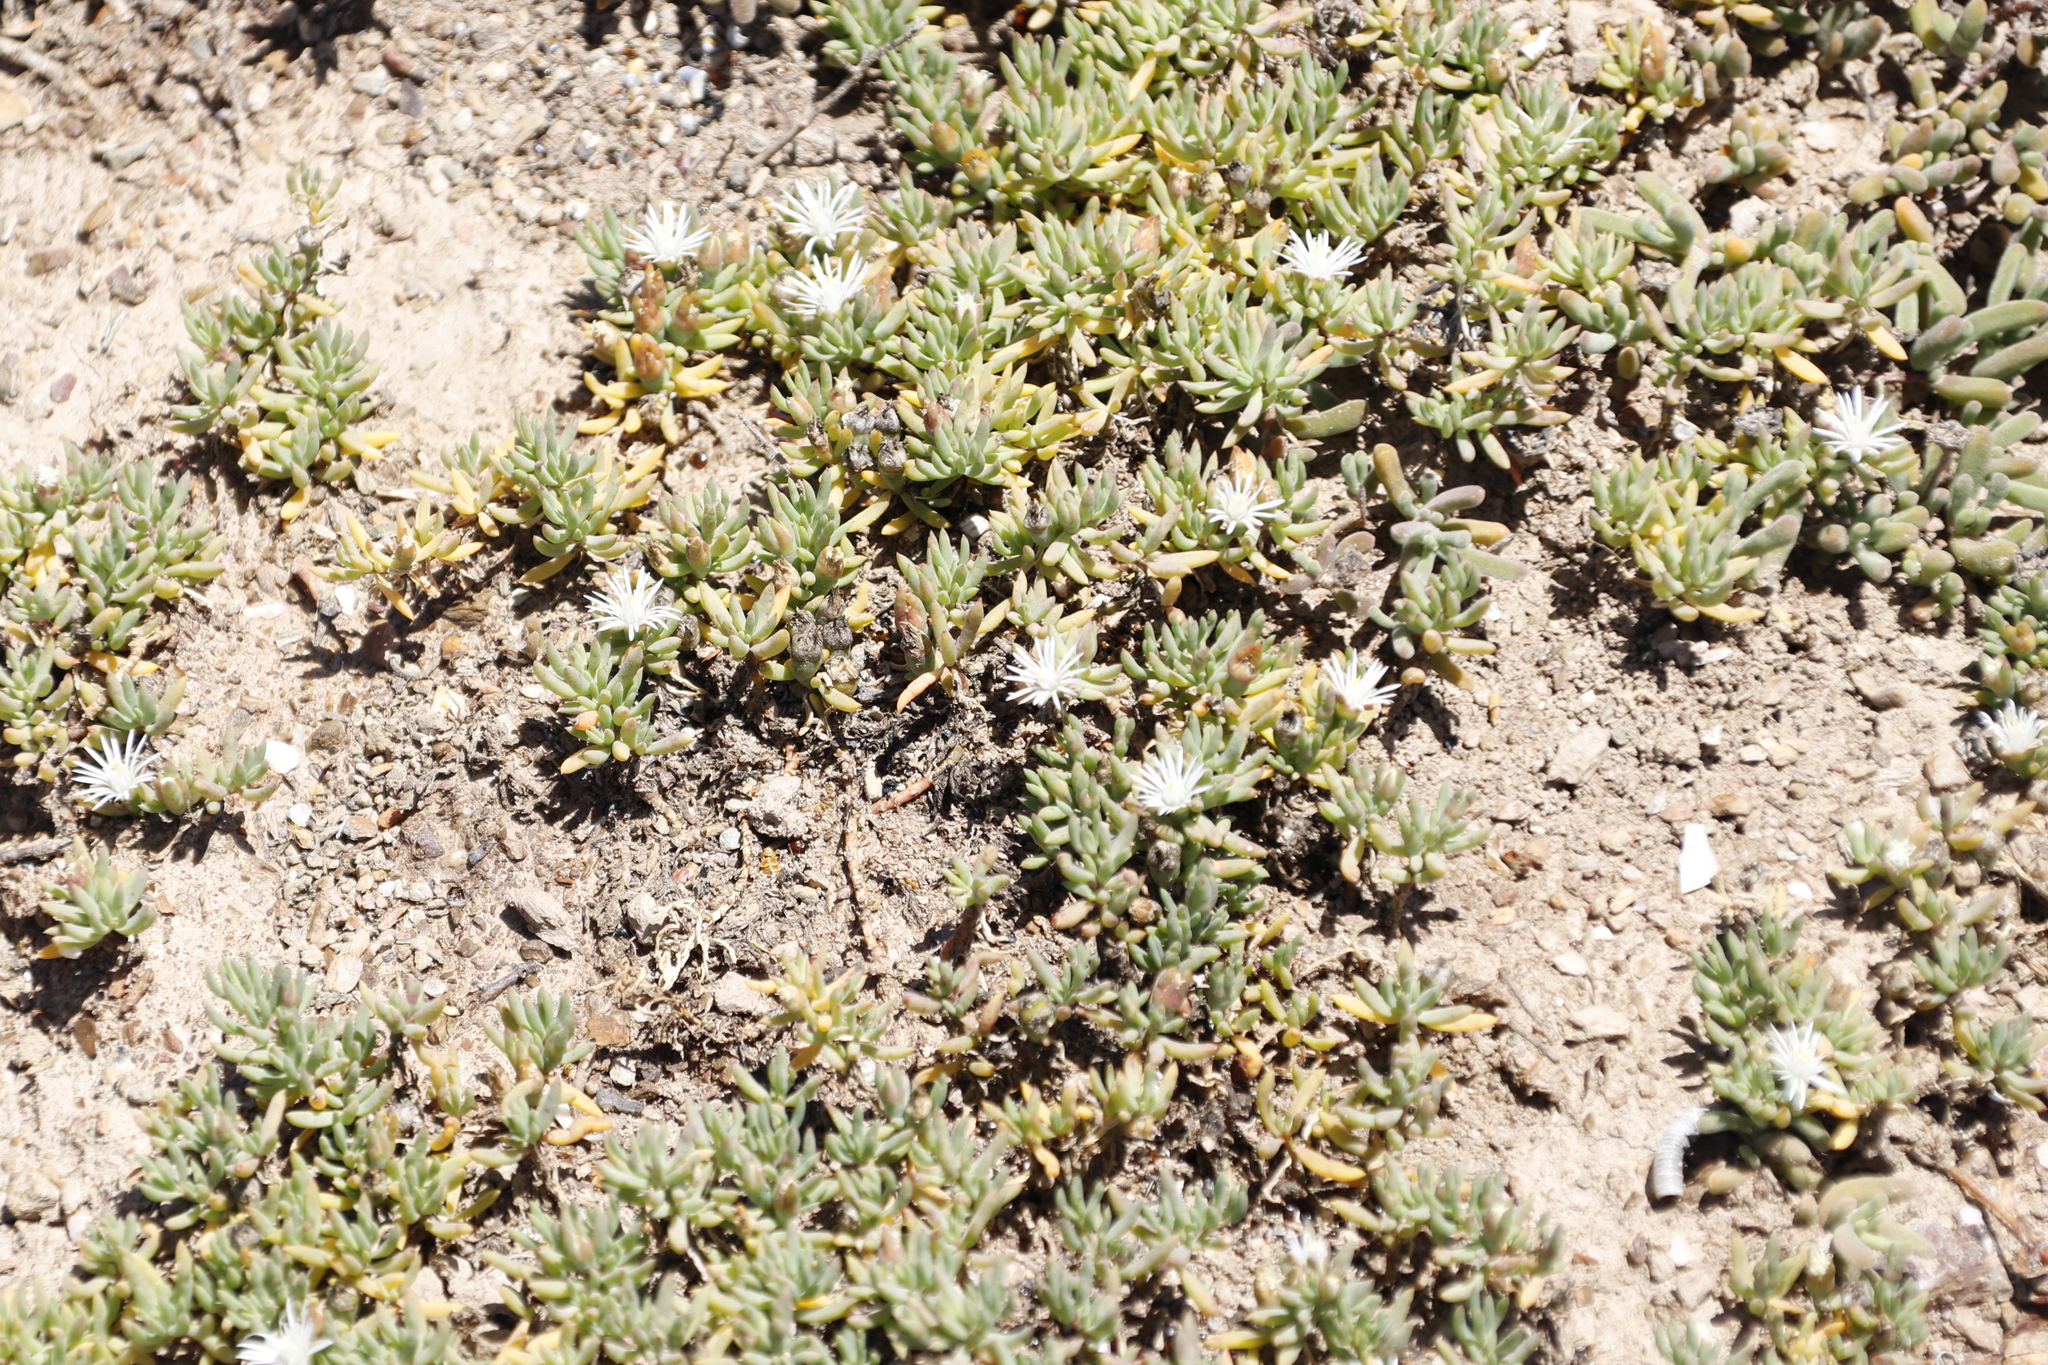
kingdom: Plantae
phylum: Tracheophyta
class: Magnoliopsida
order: Caryophyllales
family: Aizoaceae
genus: Mesembryanthemum
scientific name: Mesembryanthemum parviflorum
